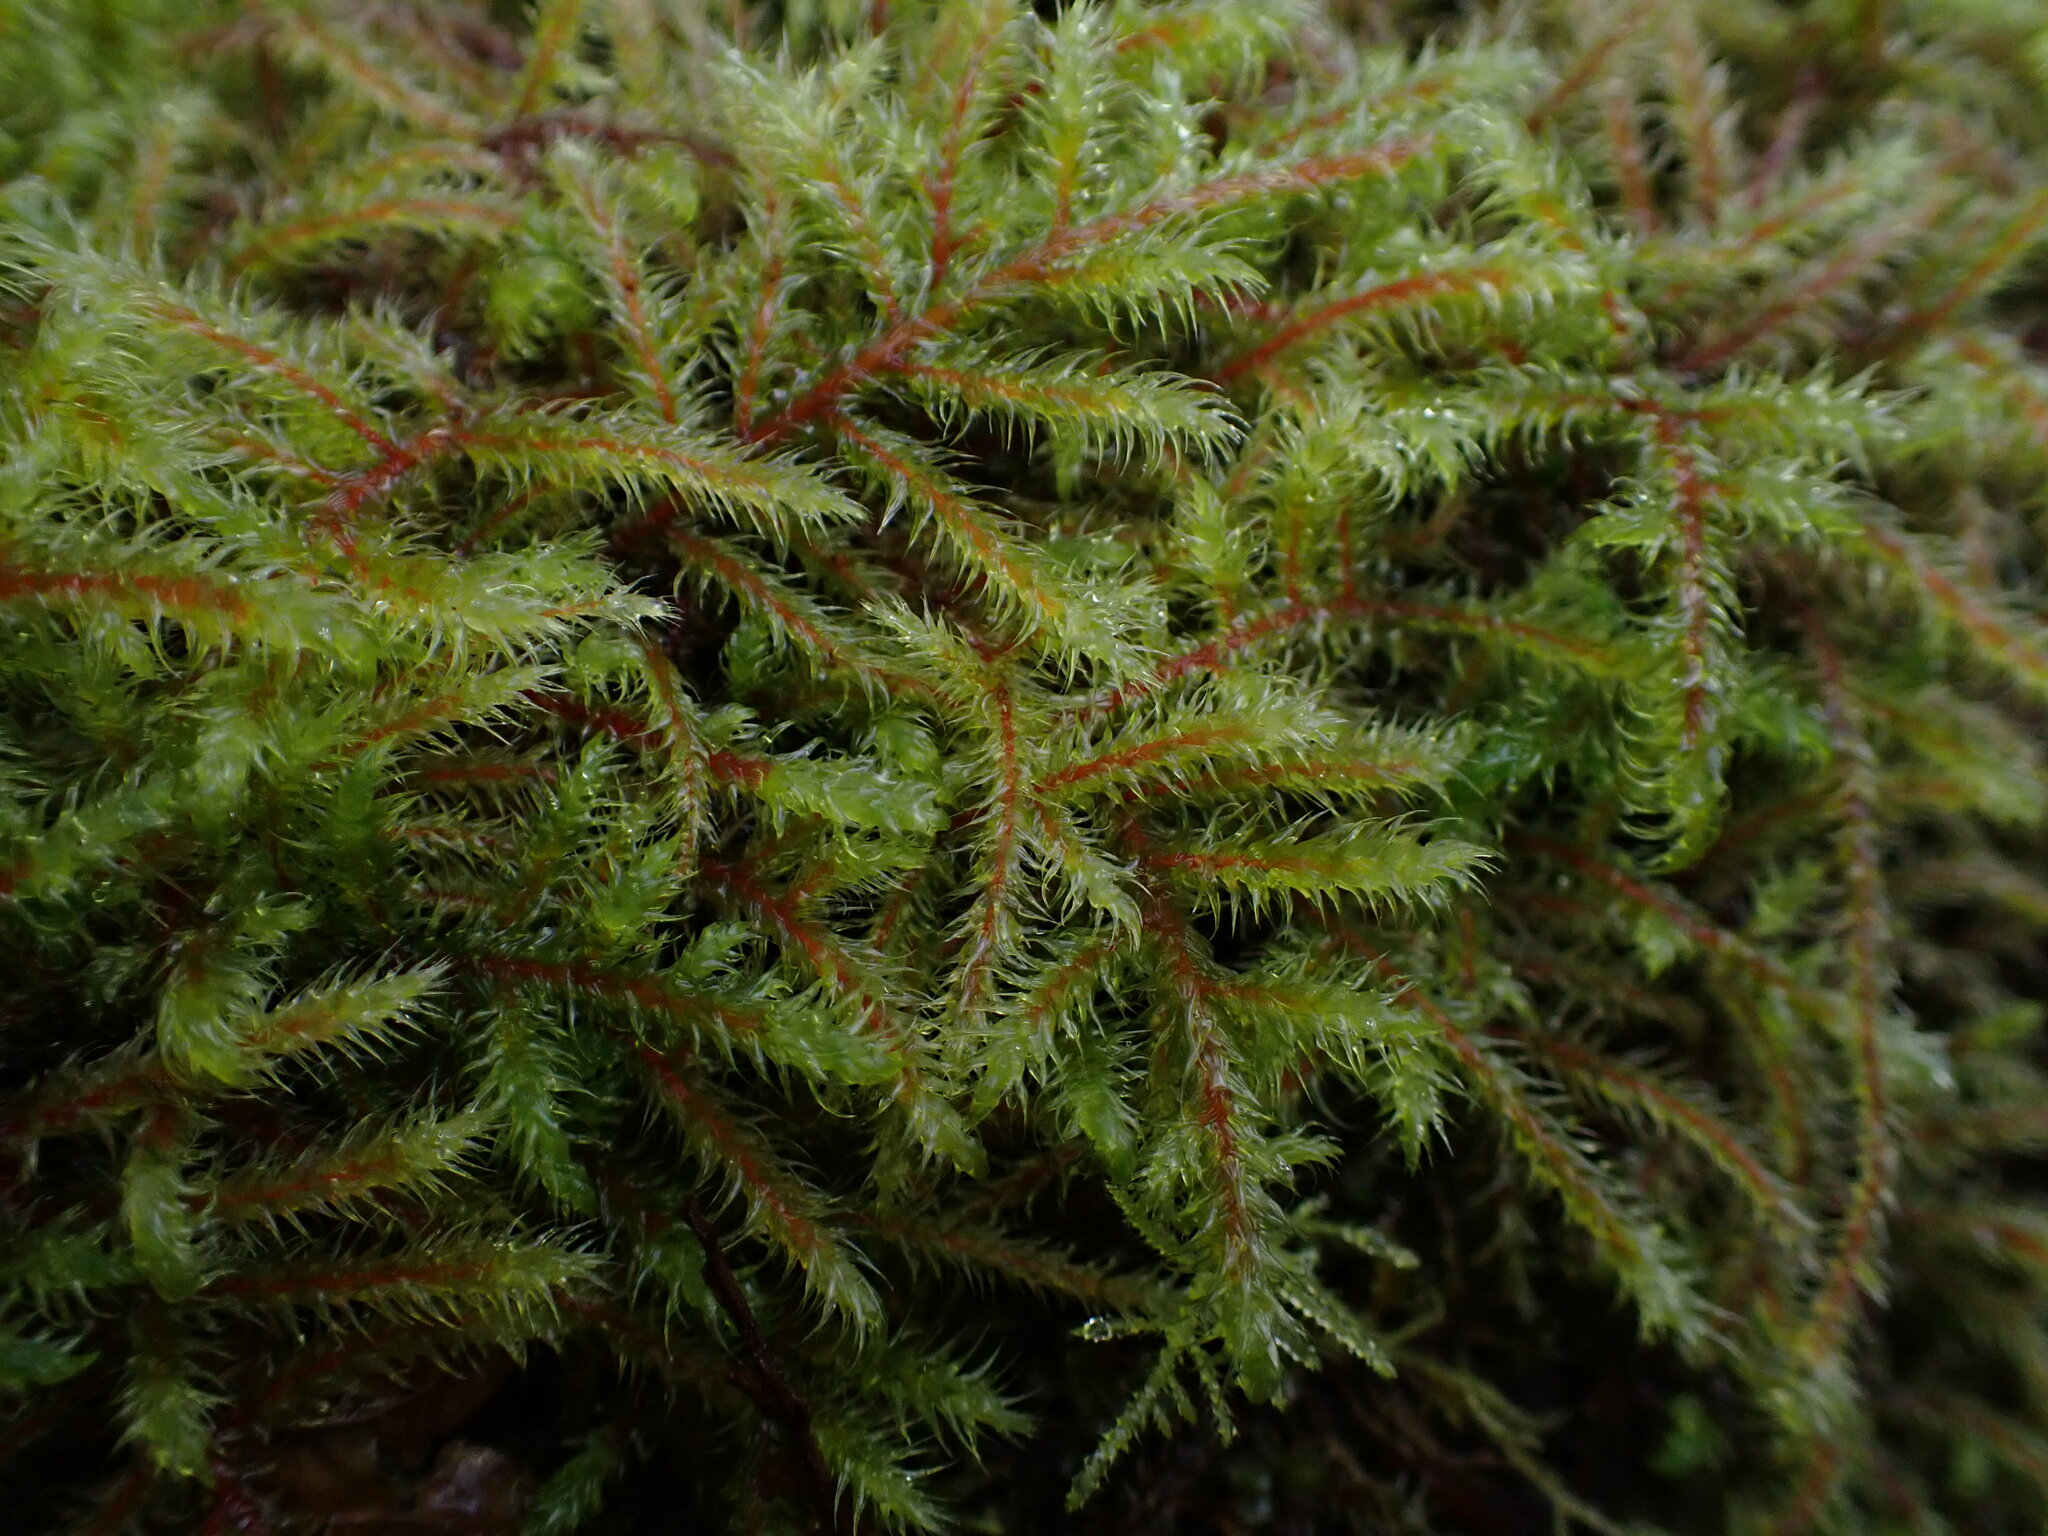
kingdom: Plantae
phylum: Bryophyta
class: Bryopsida
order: Hypnales
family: Hylocomiaceae
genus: Rhytidiadelphus
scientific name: Rhytidiadelphus loreus
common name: Lanky moss
